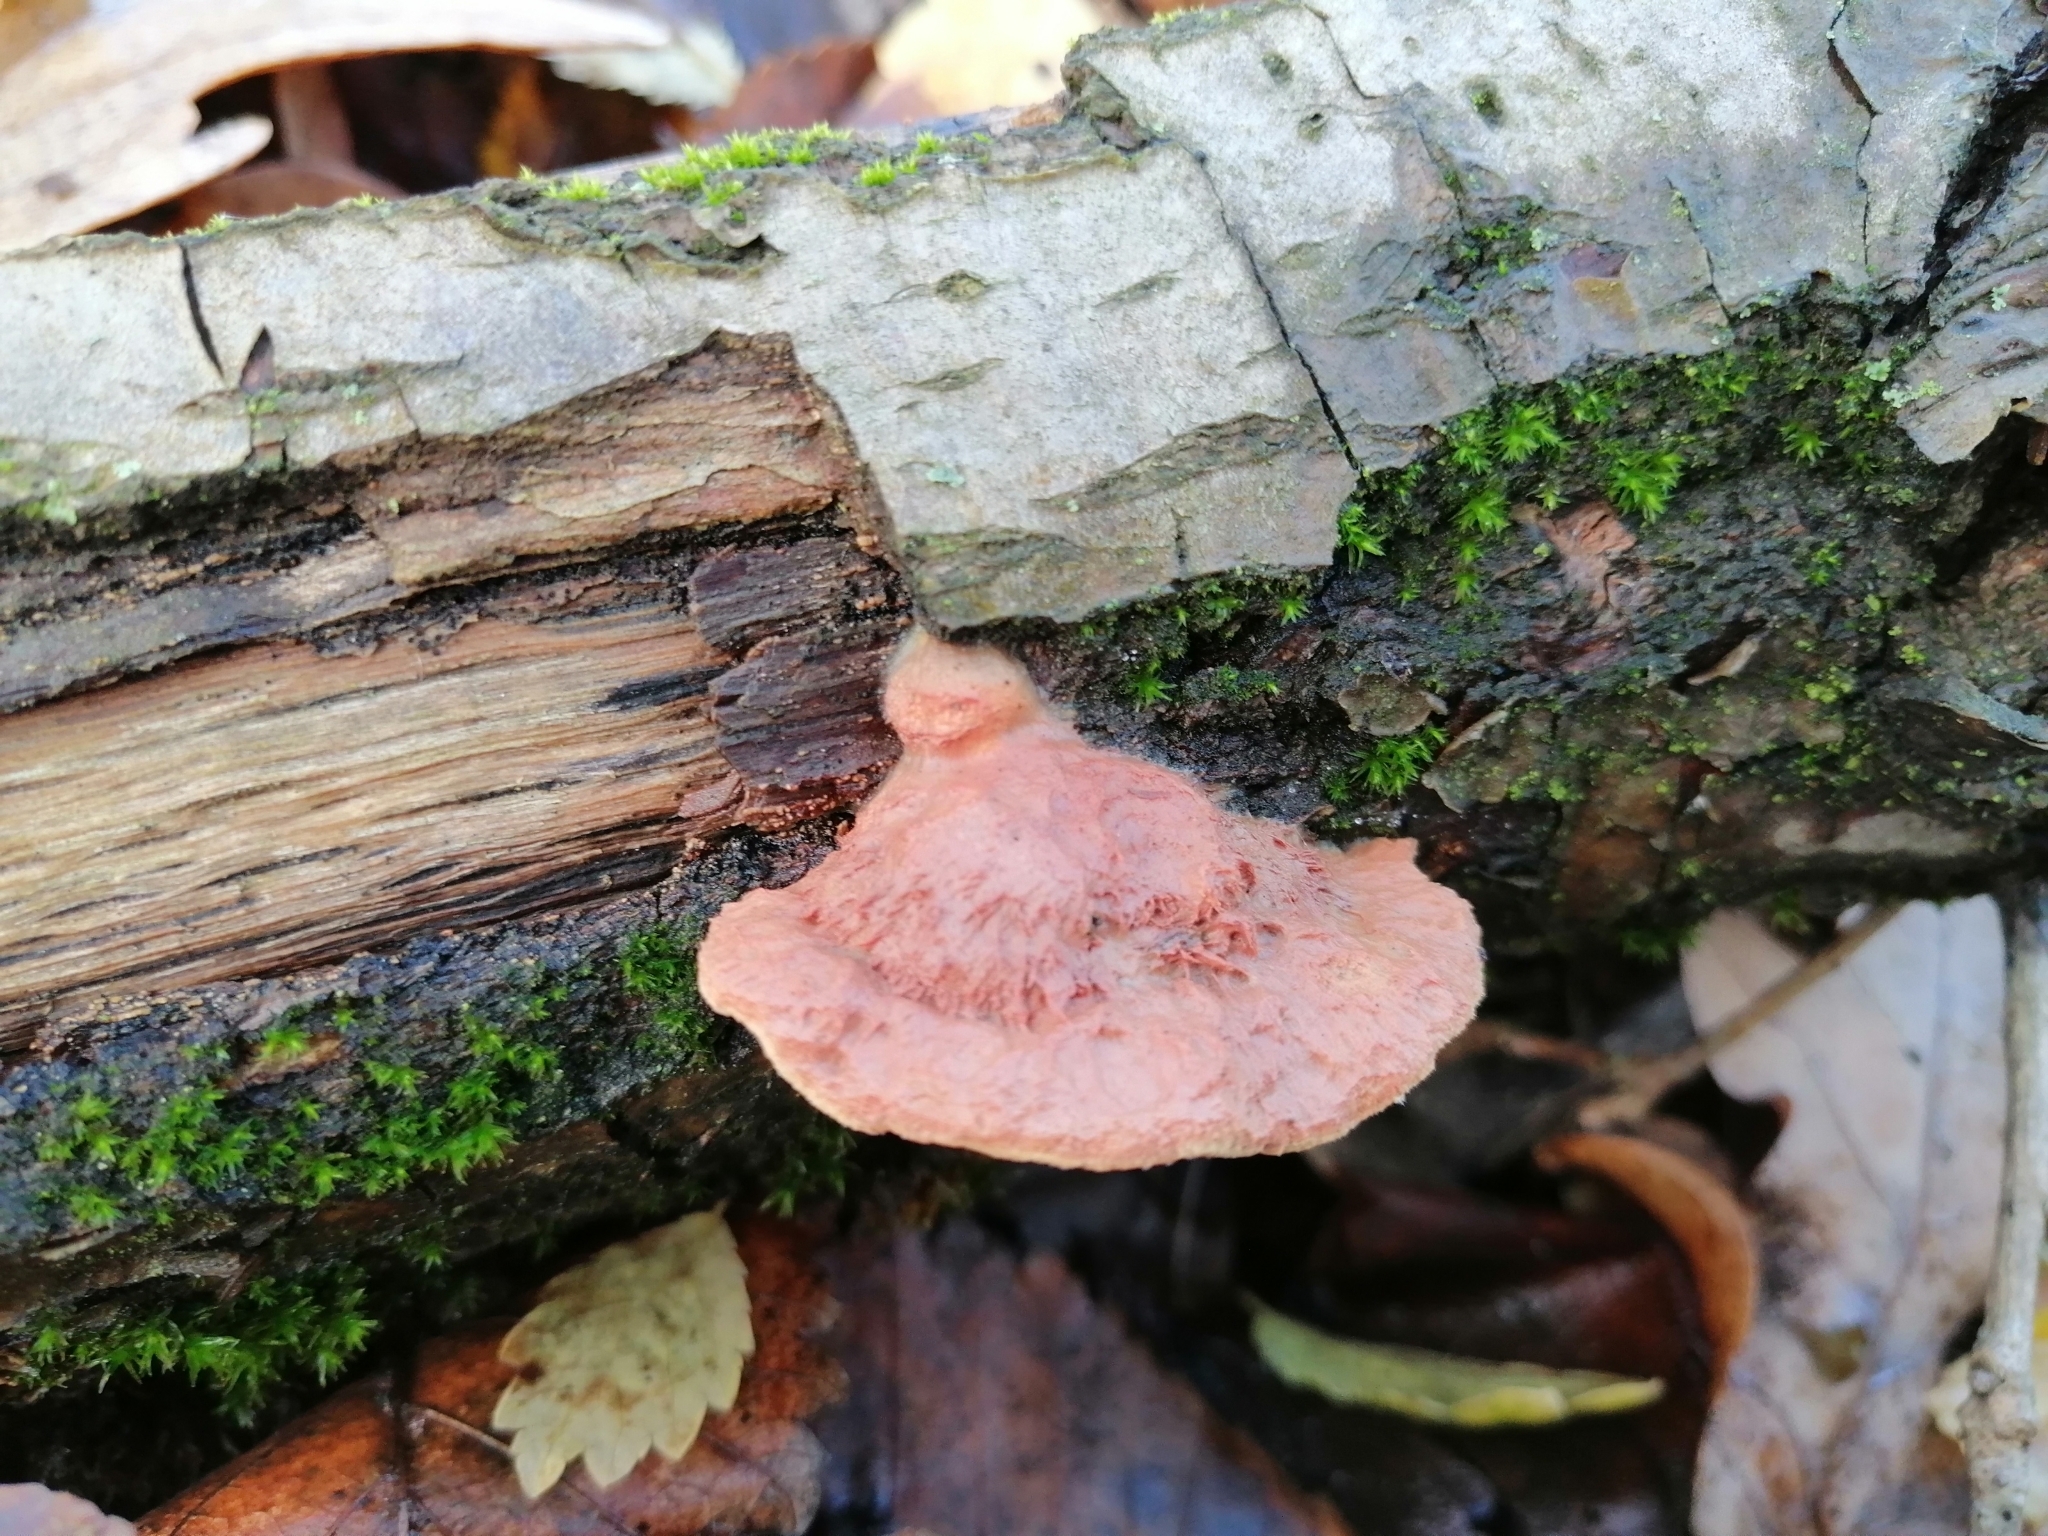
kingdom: Fungi
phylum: Basidiomycota
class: Agaricomycetes
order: Polyporales
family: Phanerochaetaceae
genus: Hapalopilus
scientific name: Hapalopilus rutilans
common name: Tender nesting polypore
